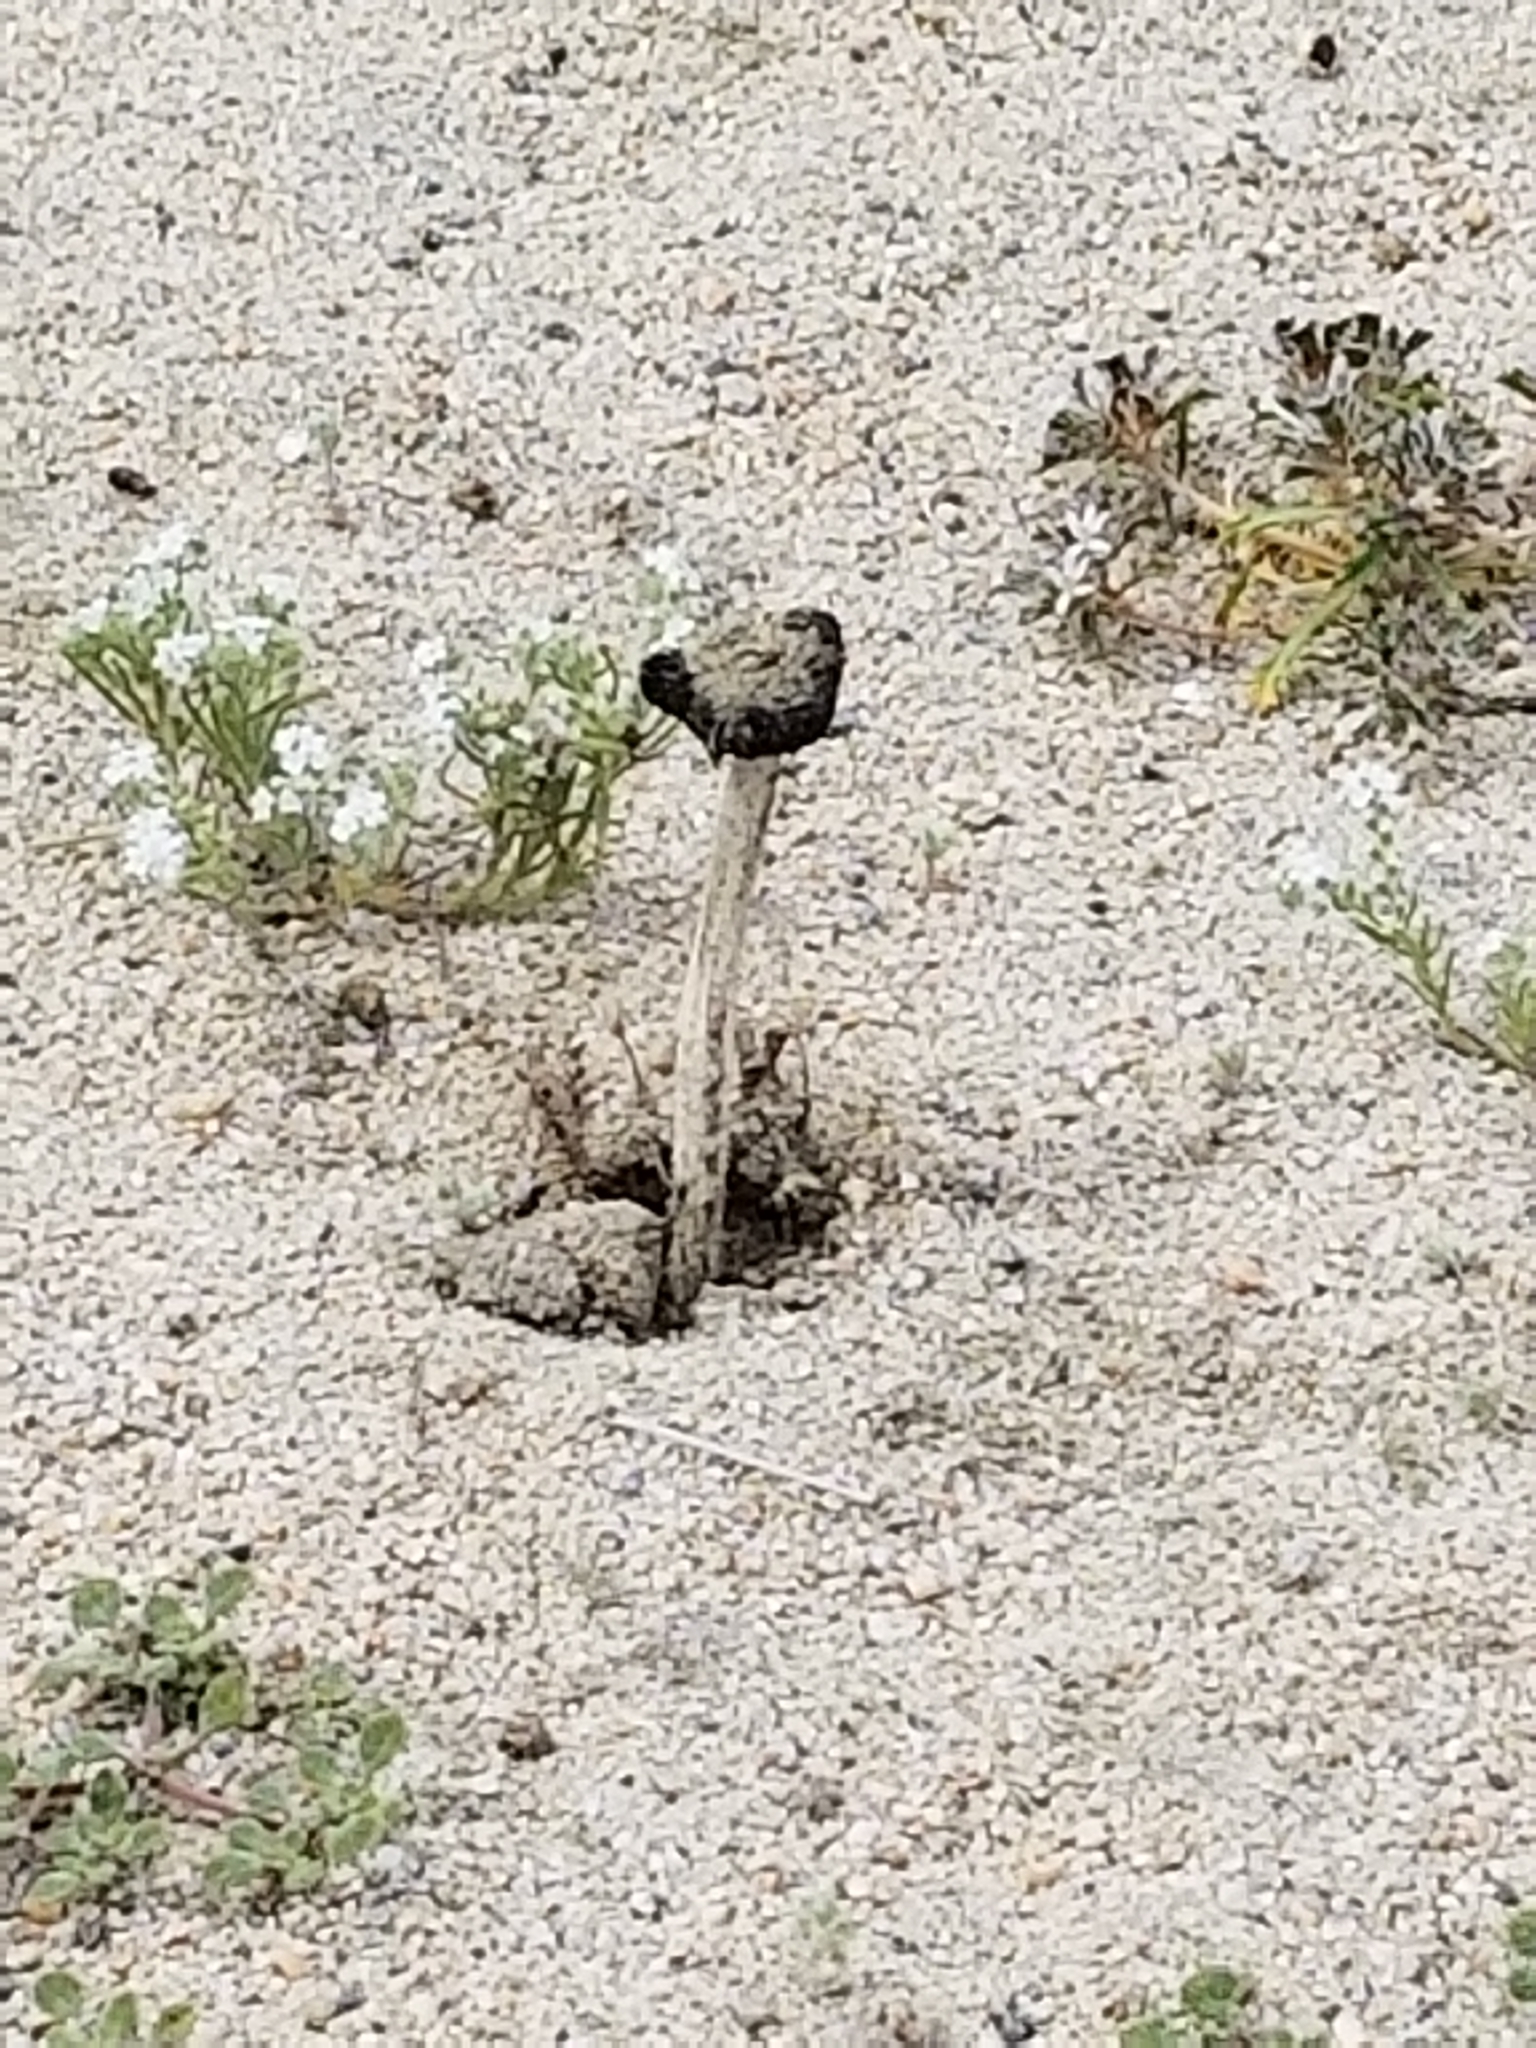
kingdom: Fungi
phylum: Basidiomycota
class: Agaricomycetes
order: Agaricales
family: Agaricaceae
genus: Montagnea
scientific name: Montagnea arenaria
